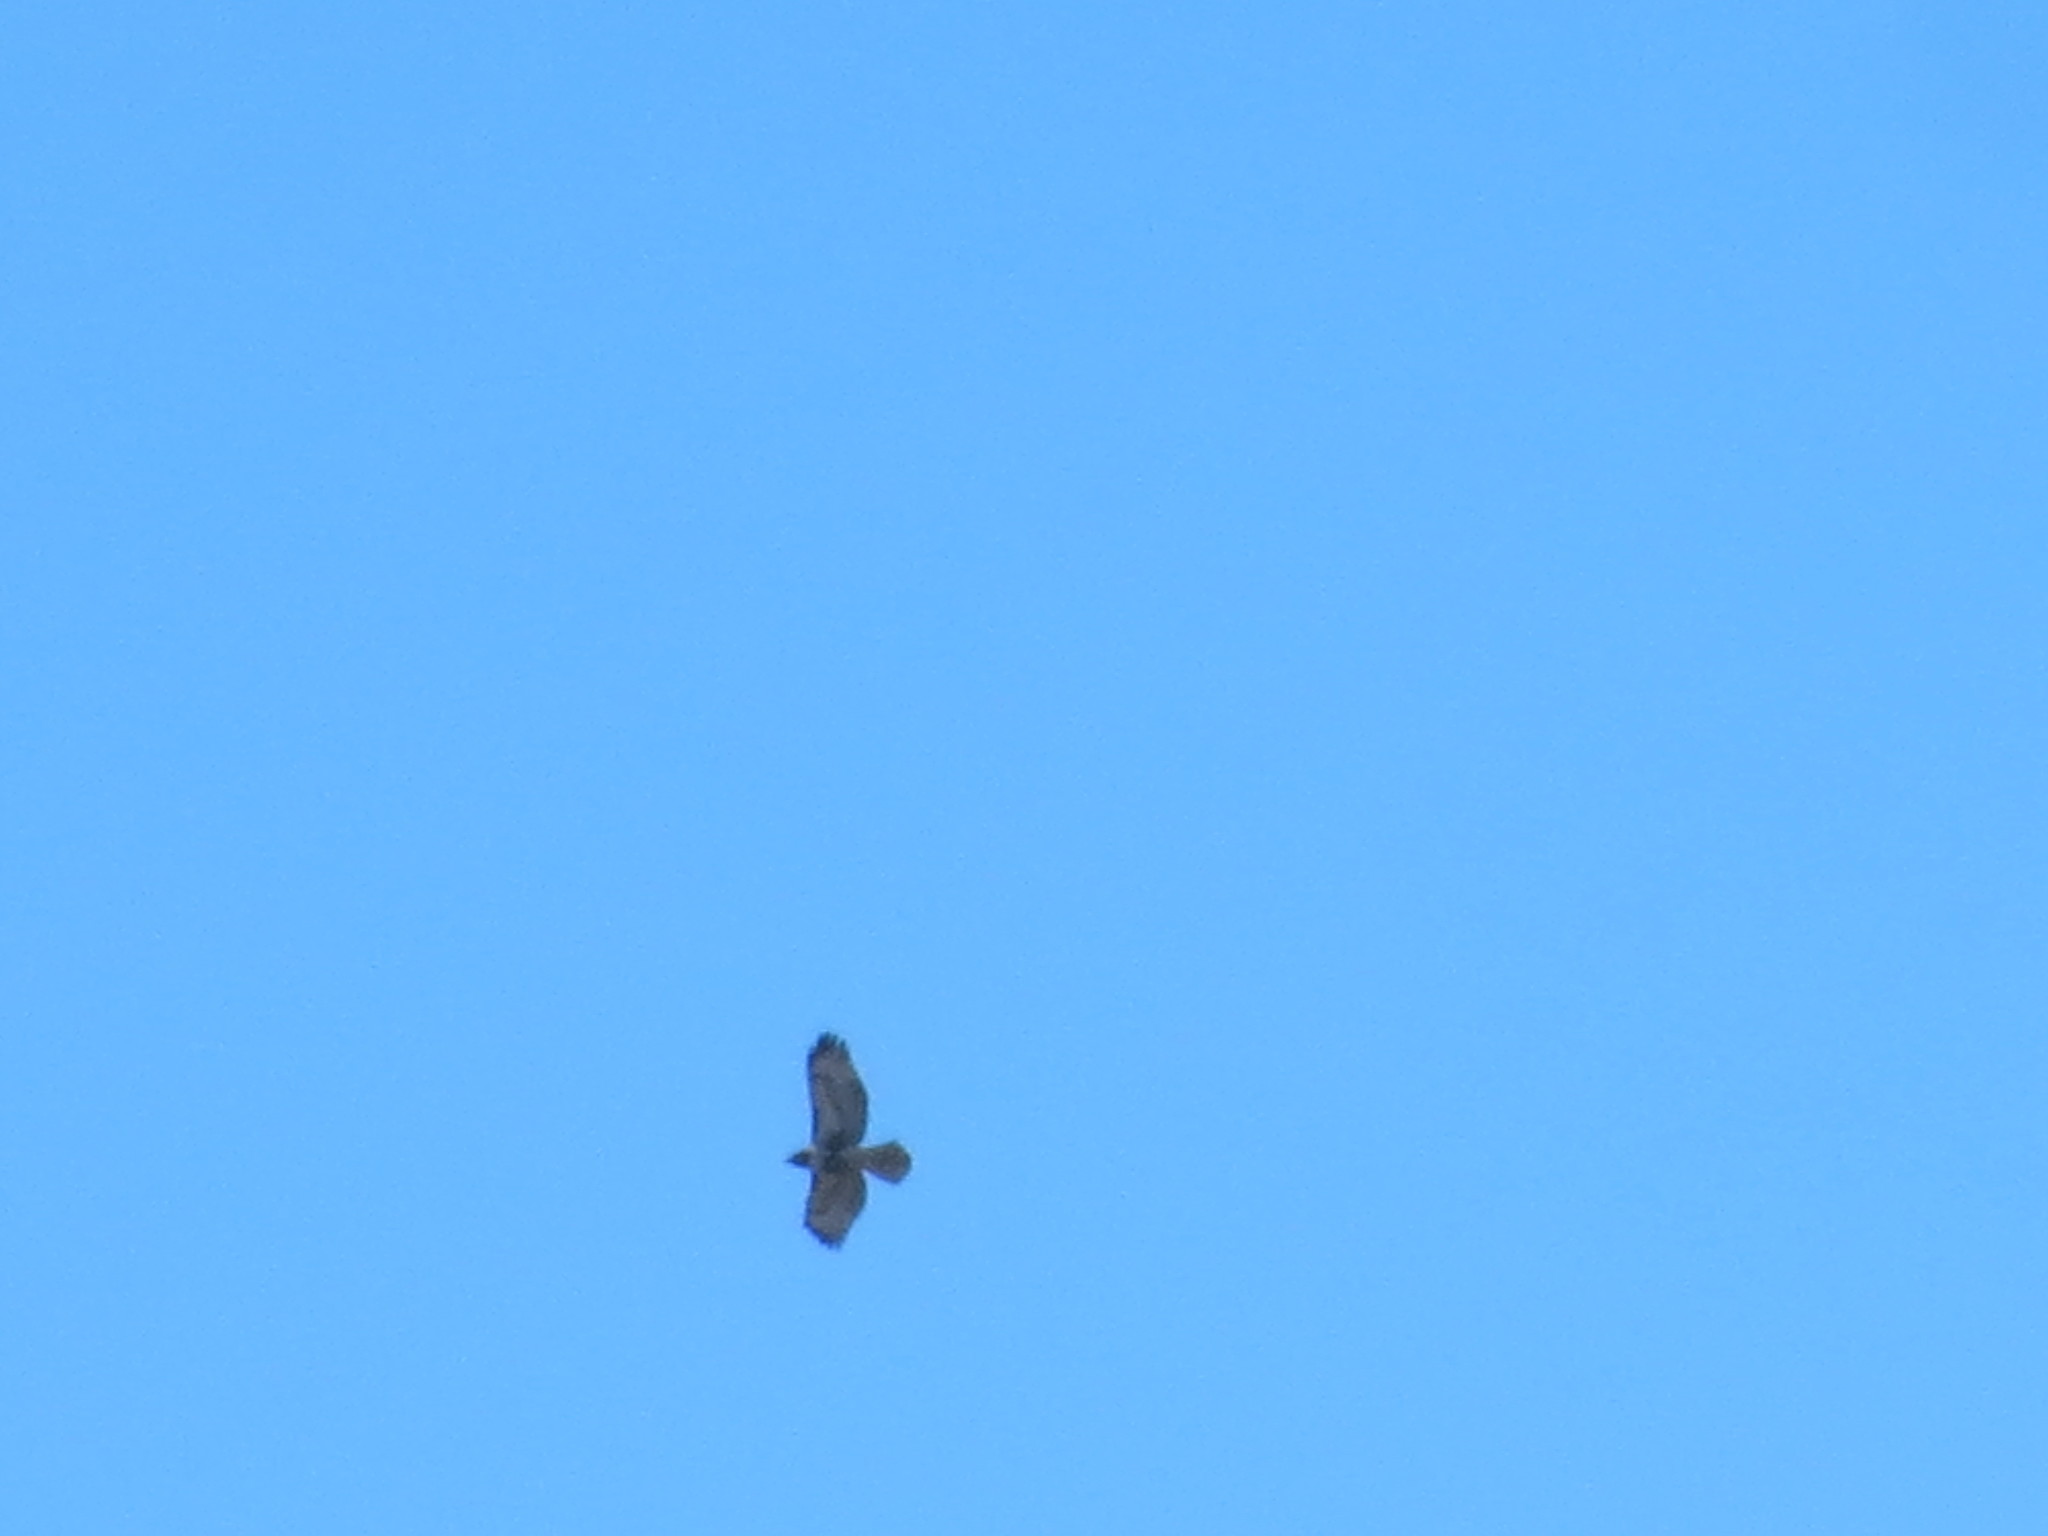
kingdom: Animalia
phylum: Chordata
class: Aves
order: Accipitriformes
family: Accipitridae
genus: Buteo
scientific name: Buteo jamaicensis
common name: Red-tailed hawk
